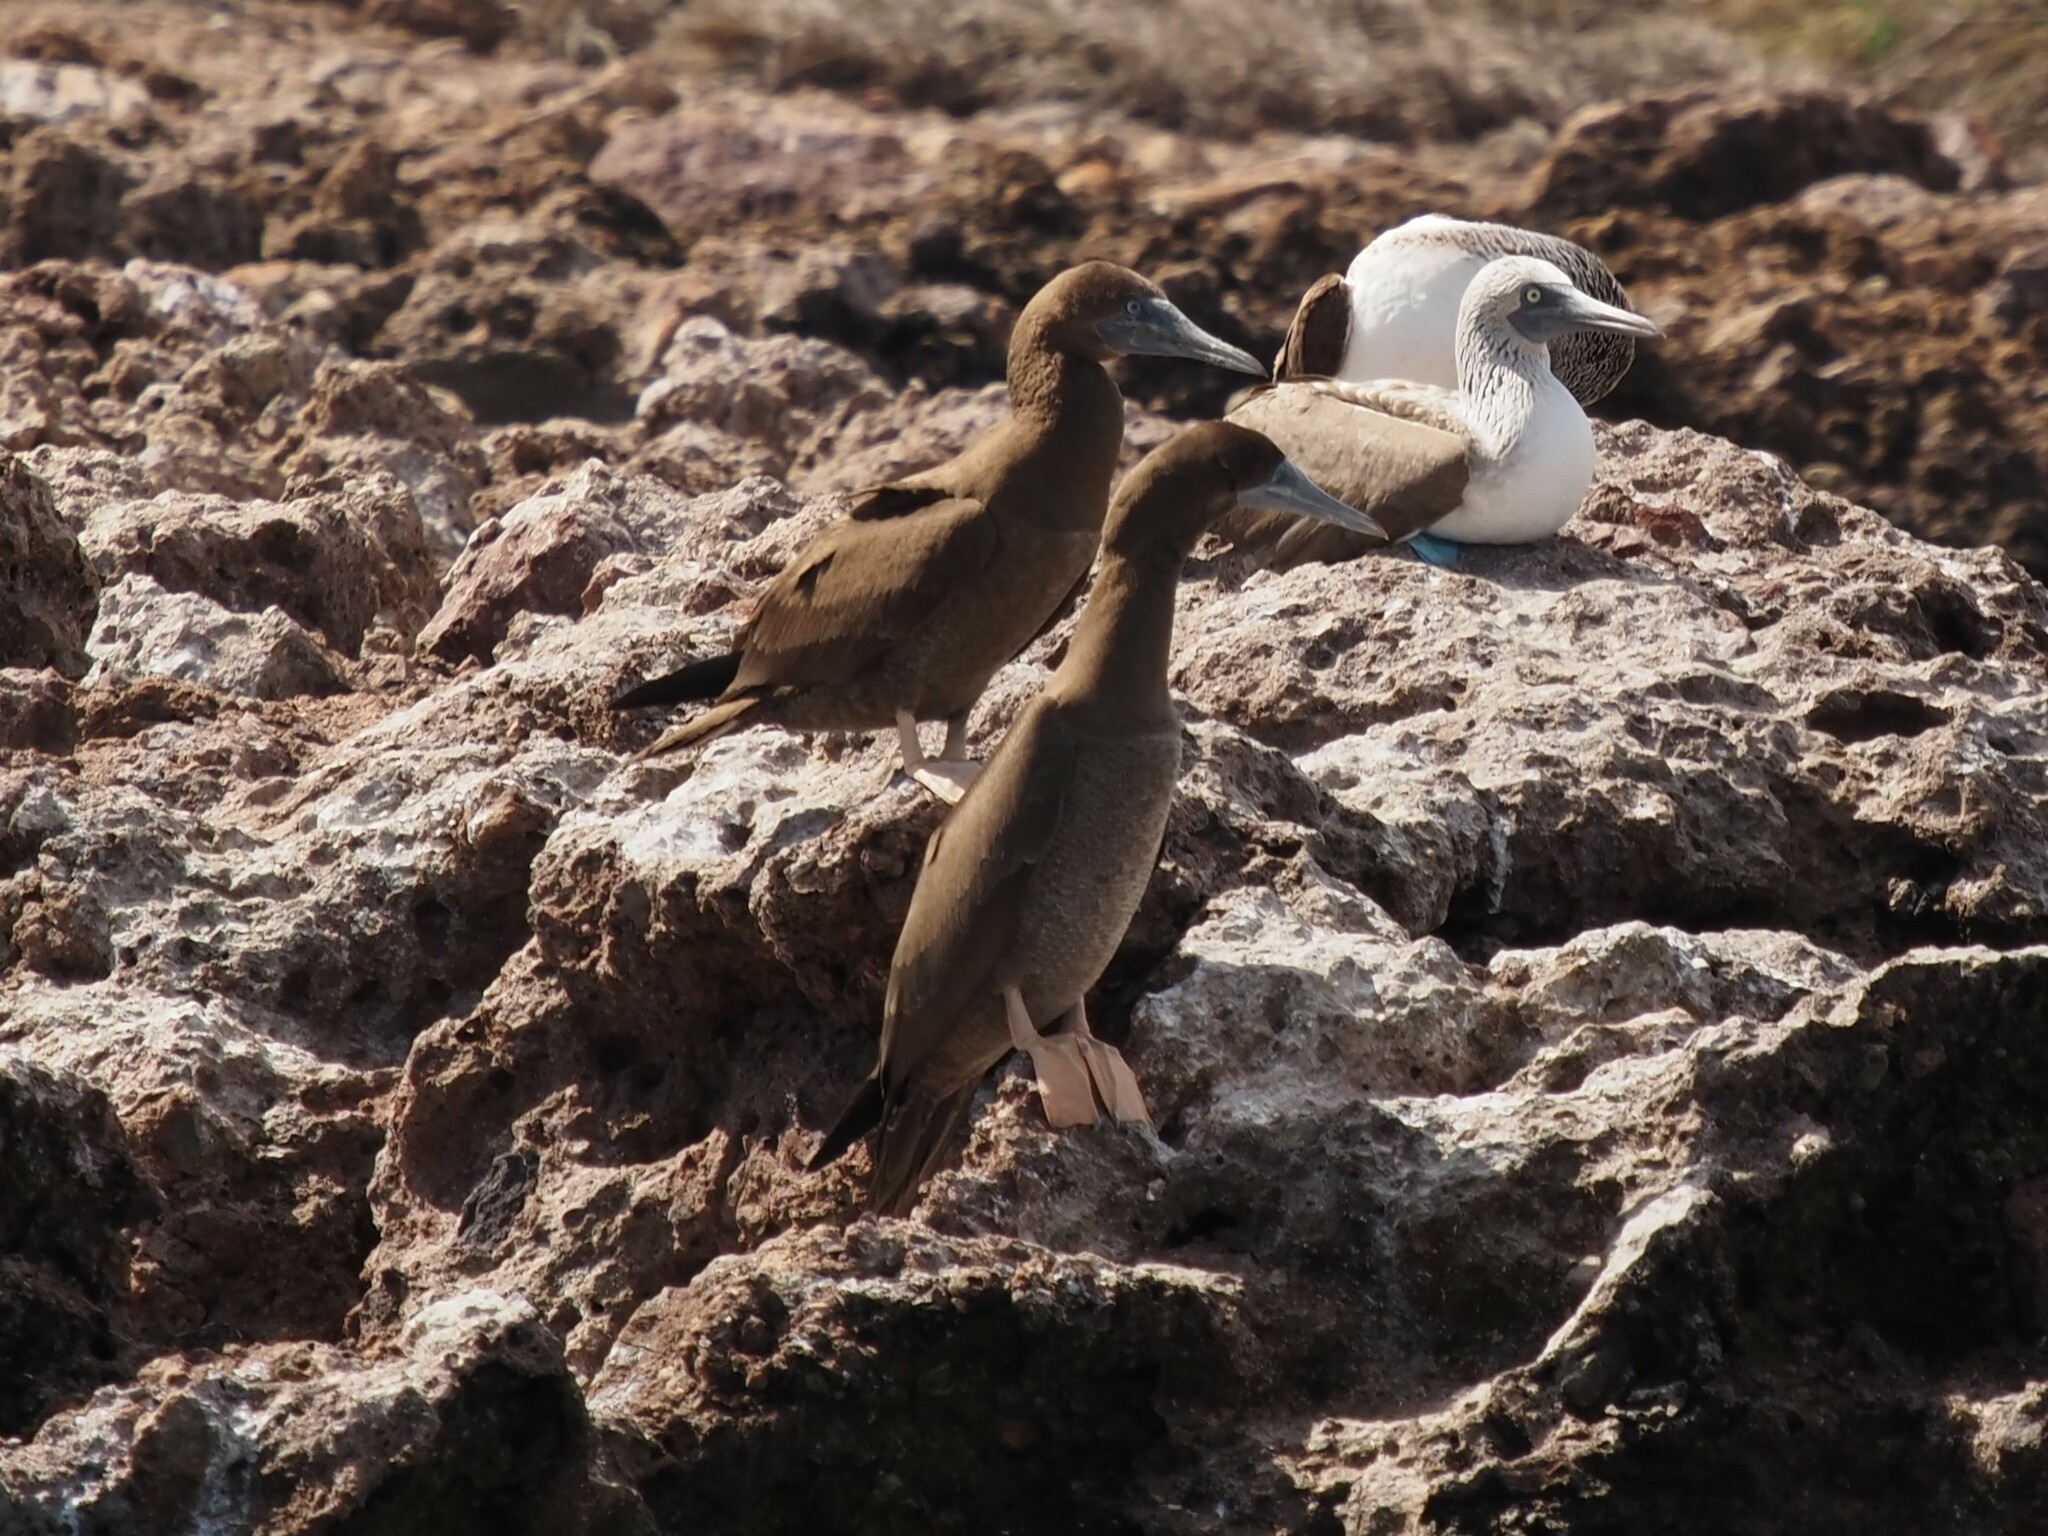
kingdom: Animalia
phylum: Chordata
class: Aves
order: Suliformes
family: Sulidae
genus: Sula
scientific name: Sula leucogaster
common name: Brown booby
